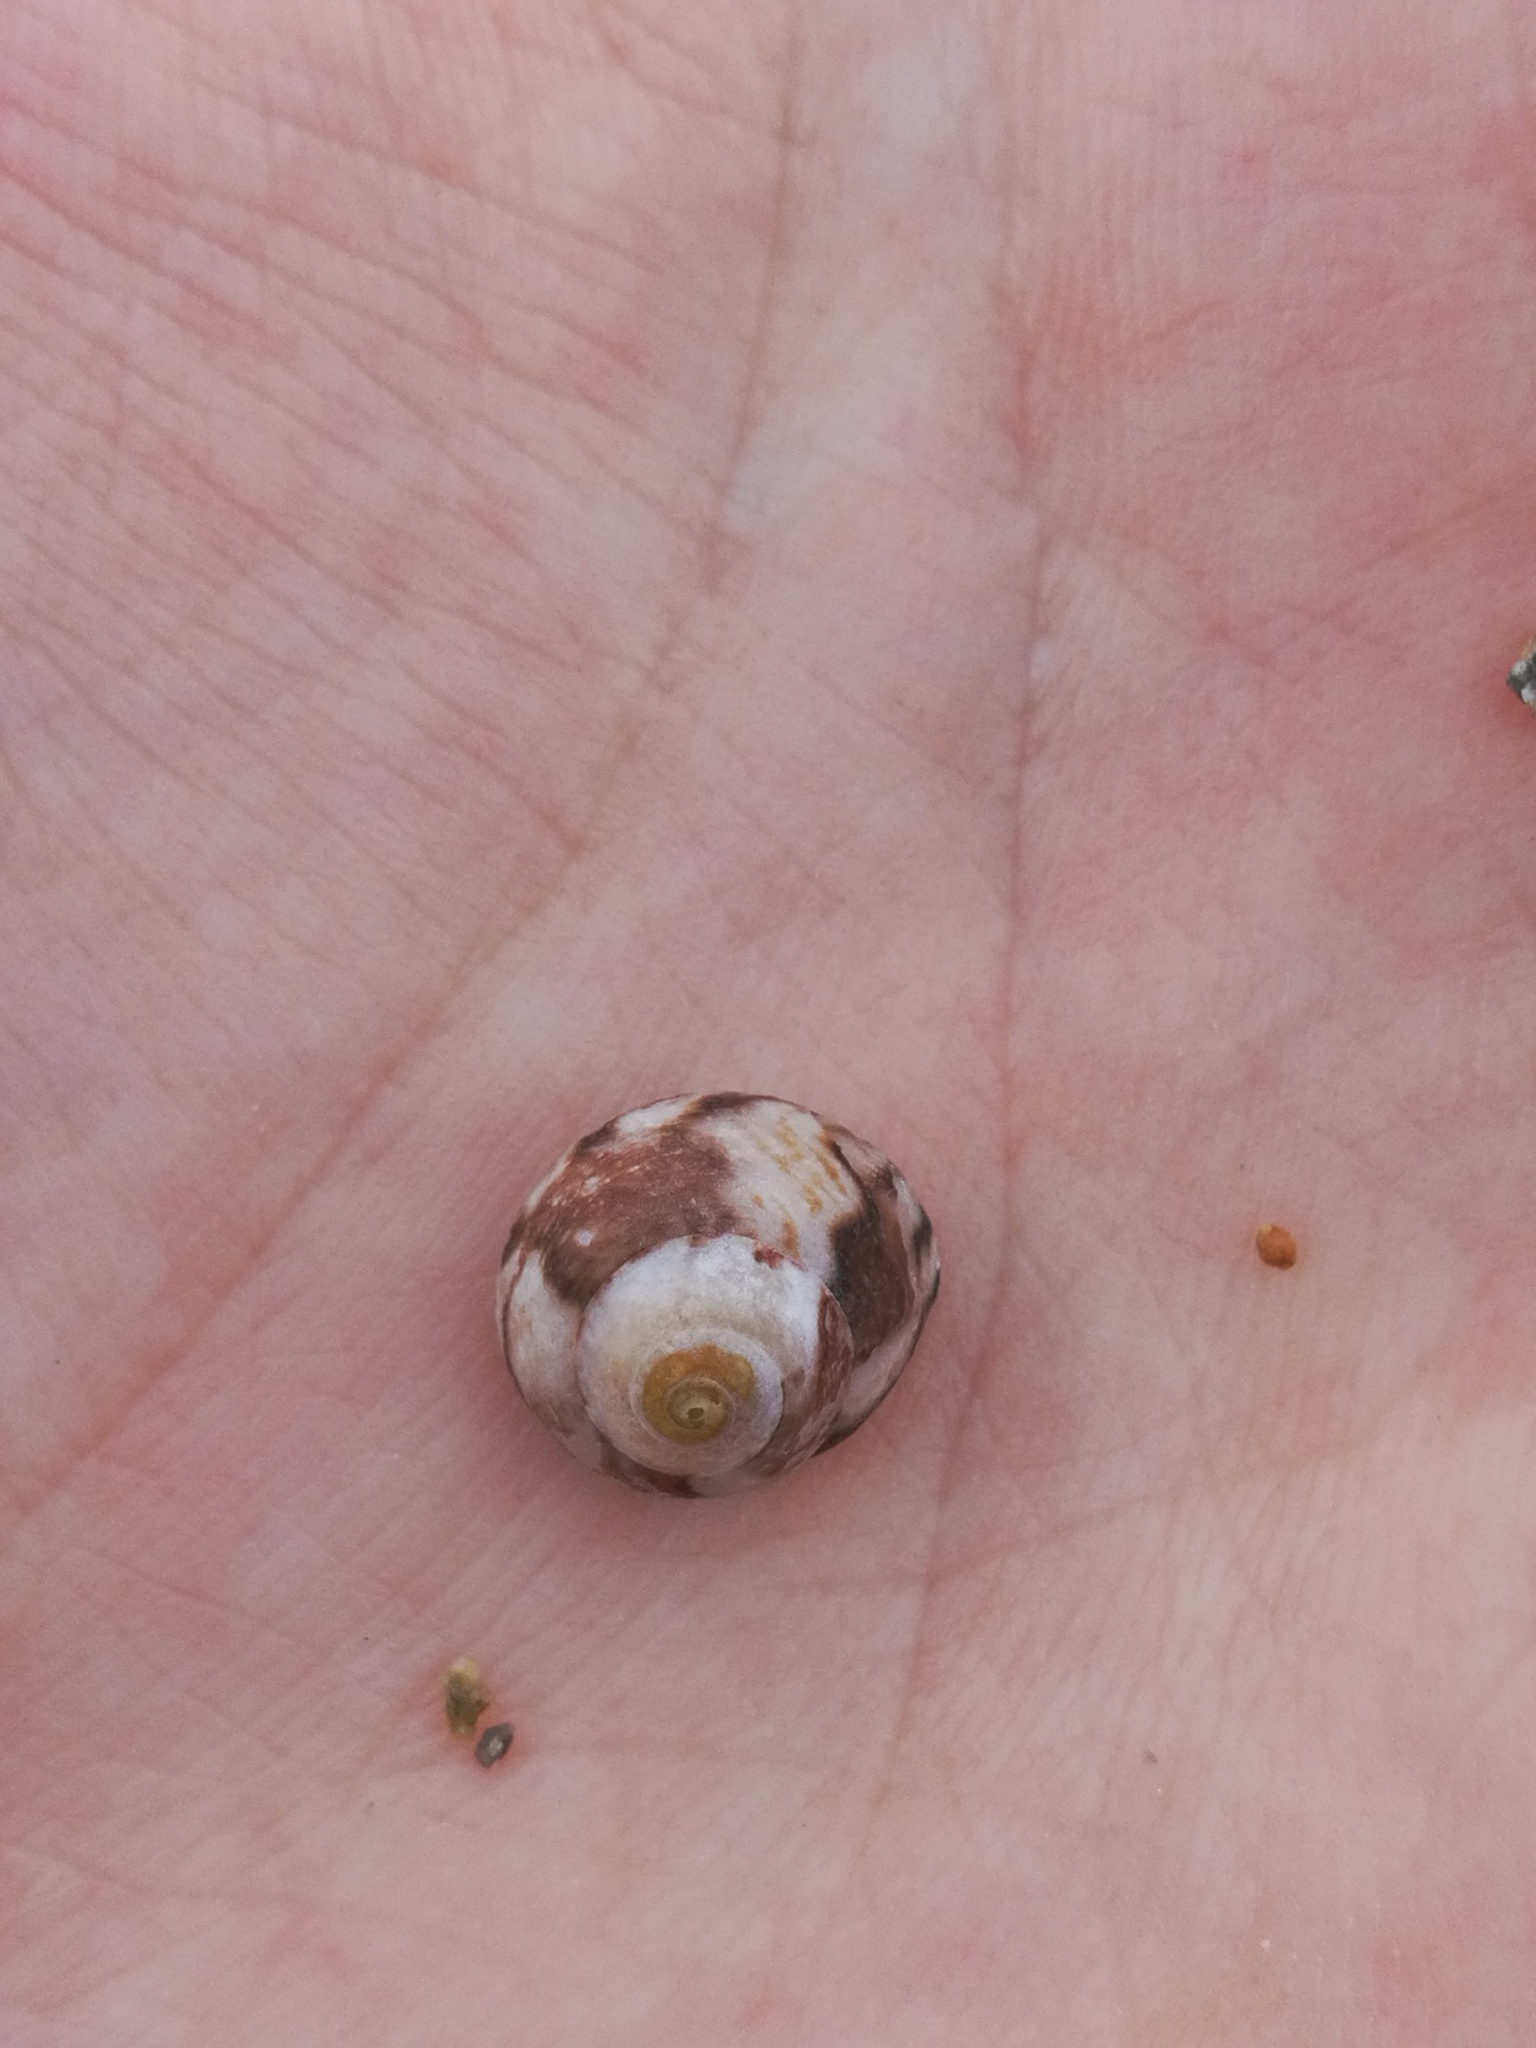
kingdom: Animalia
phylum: Mollusca
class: Gastropoda
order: Trochida
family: Trochidae
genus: Steromphala
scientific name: Steromphala varia
